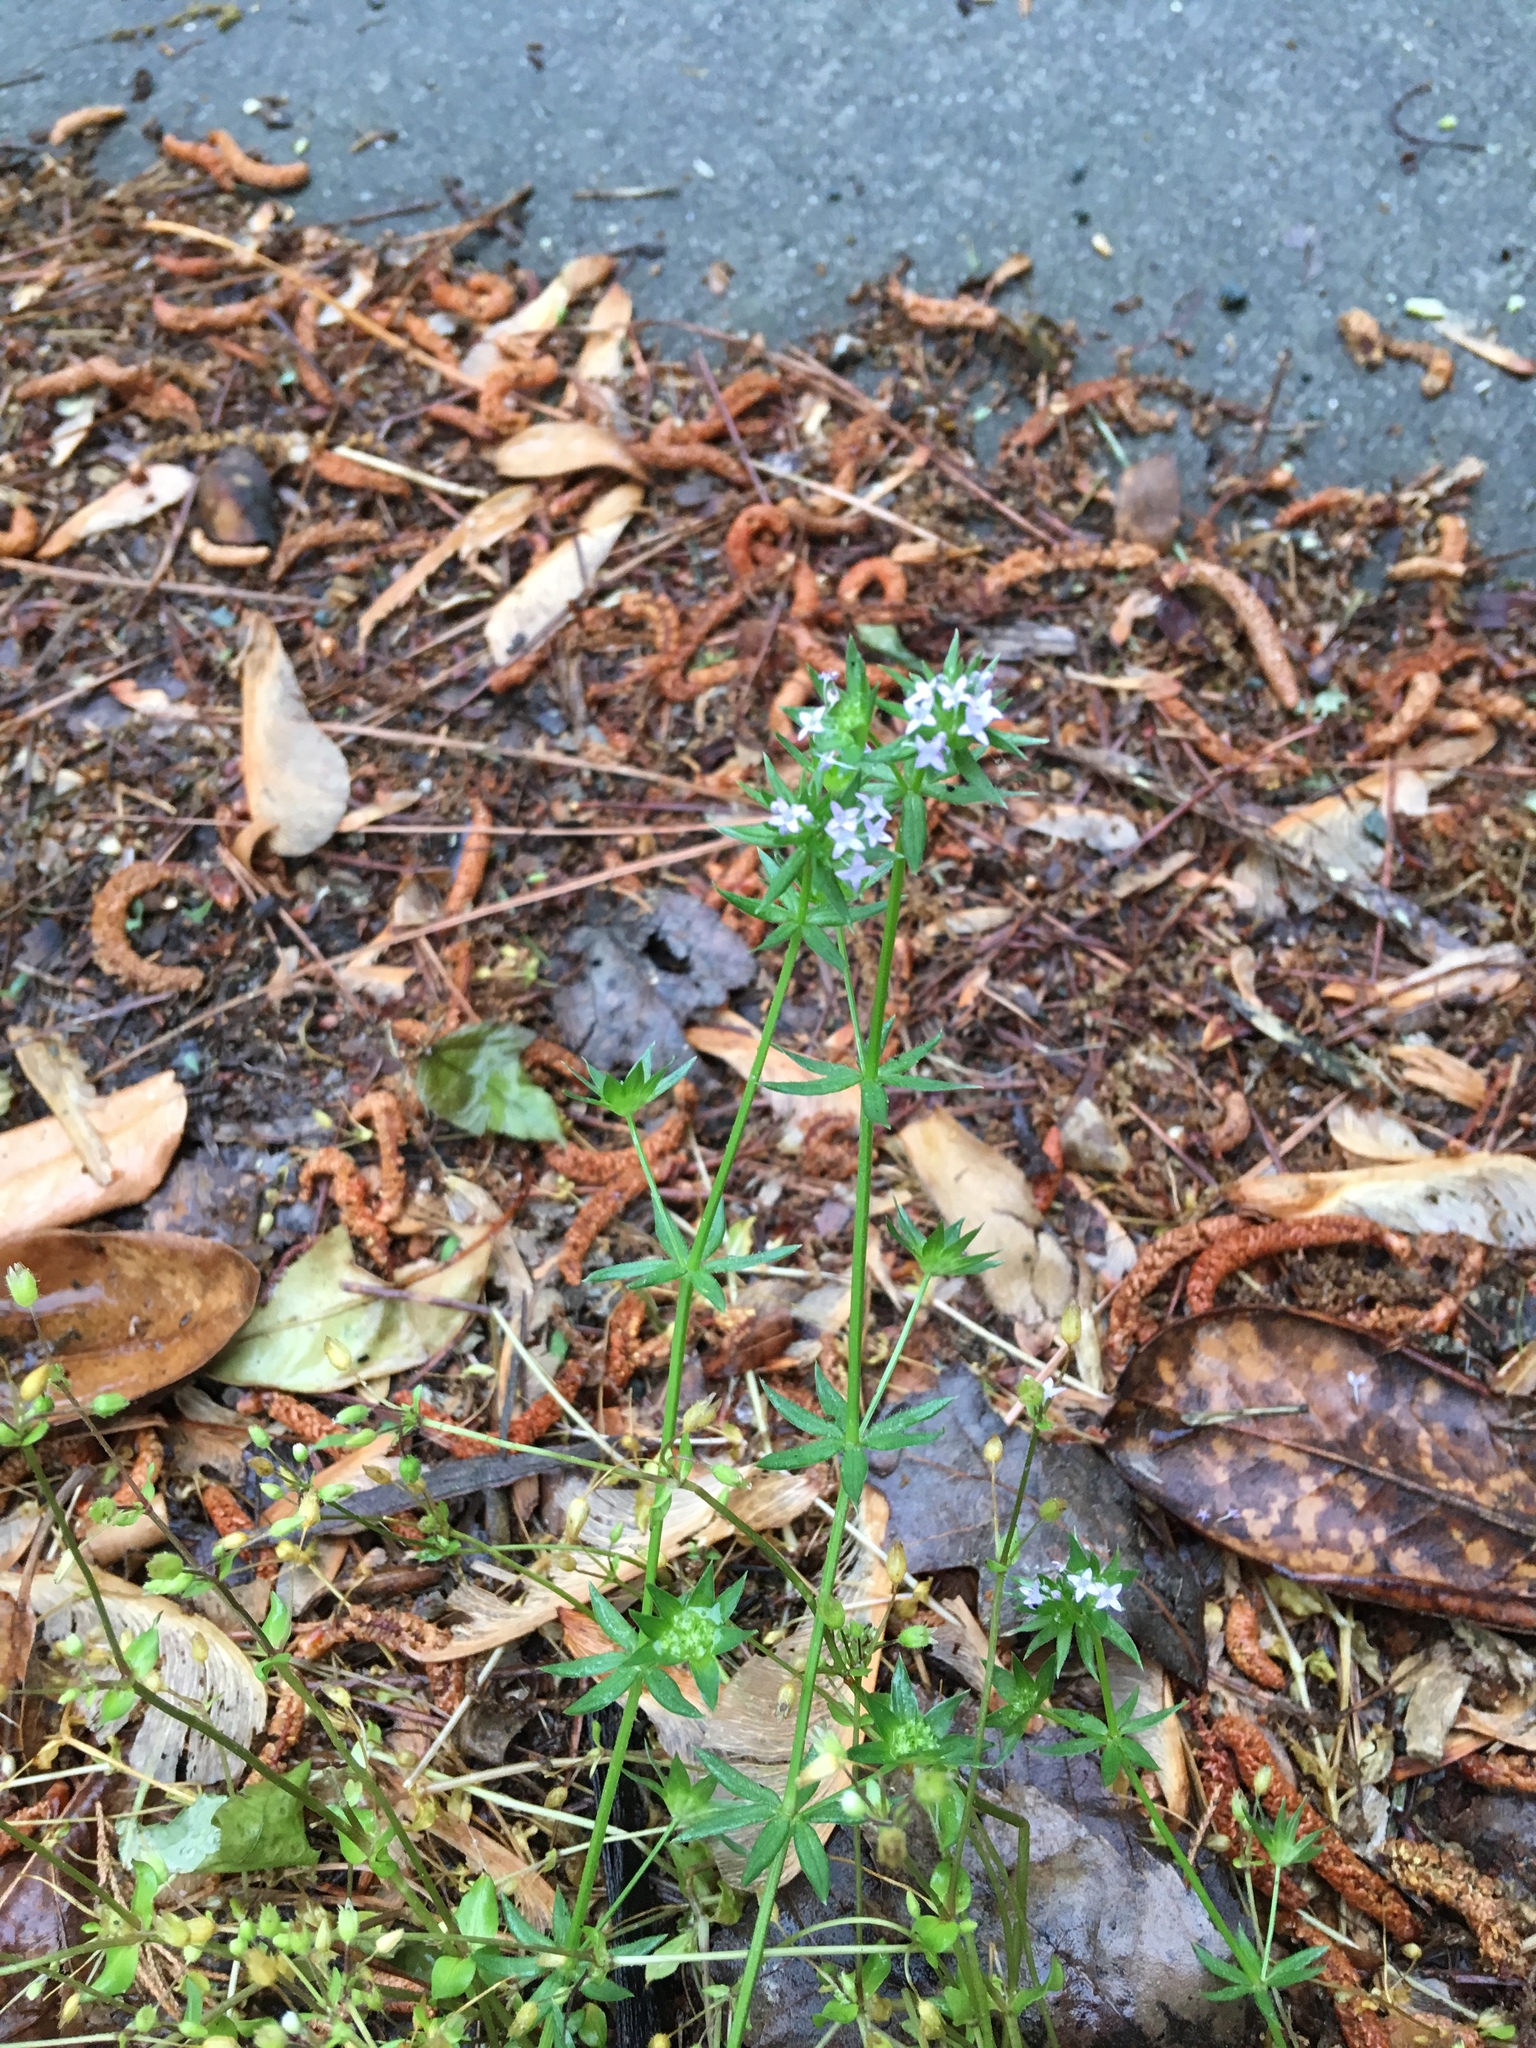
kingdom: Plantae
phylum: Tracheophyta
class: Magnoliopsida
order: Gentianales
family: Rubiaceae
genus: Sherardia
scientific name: Sherardia arvensis
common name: Field madder
